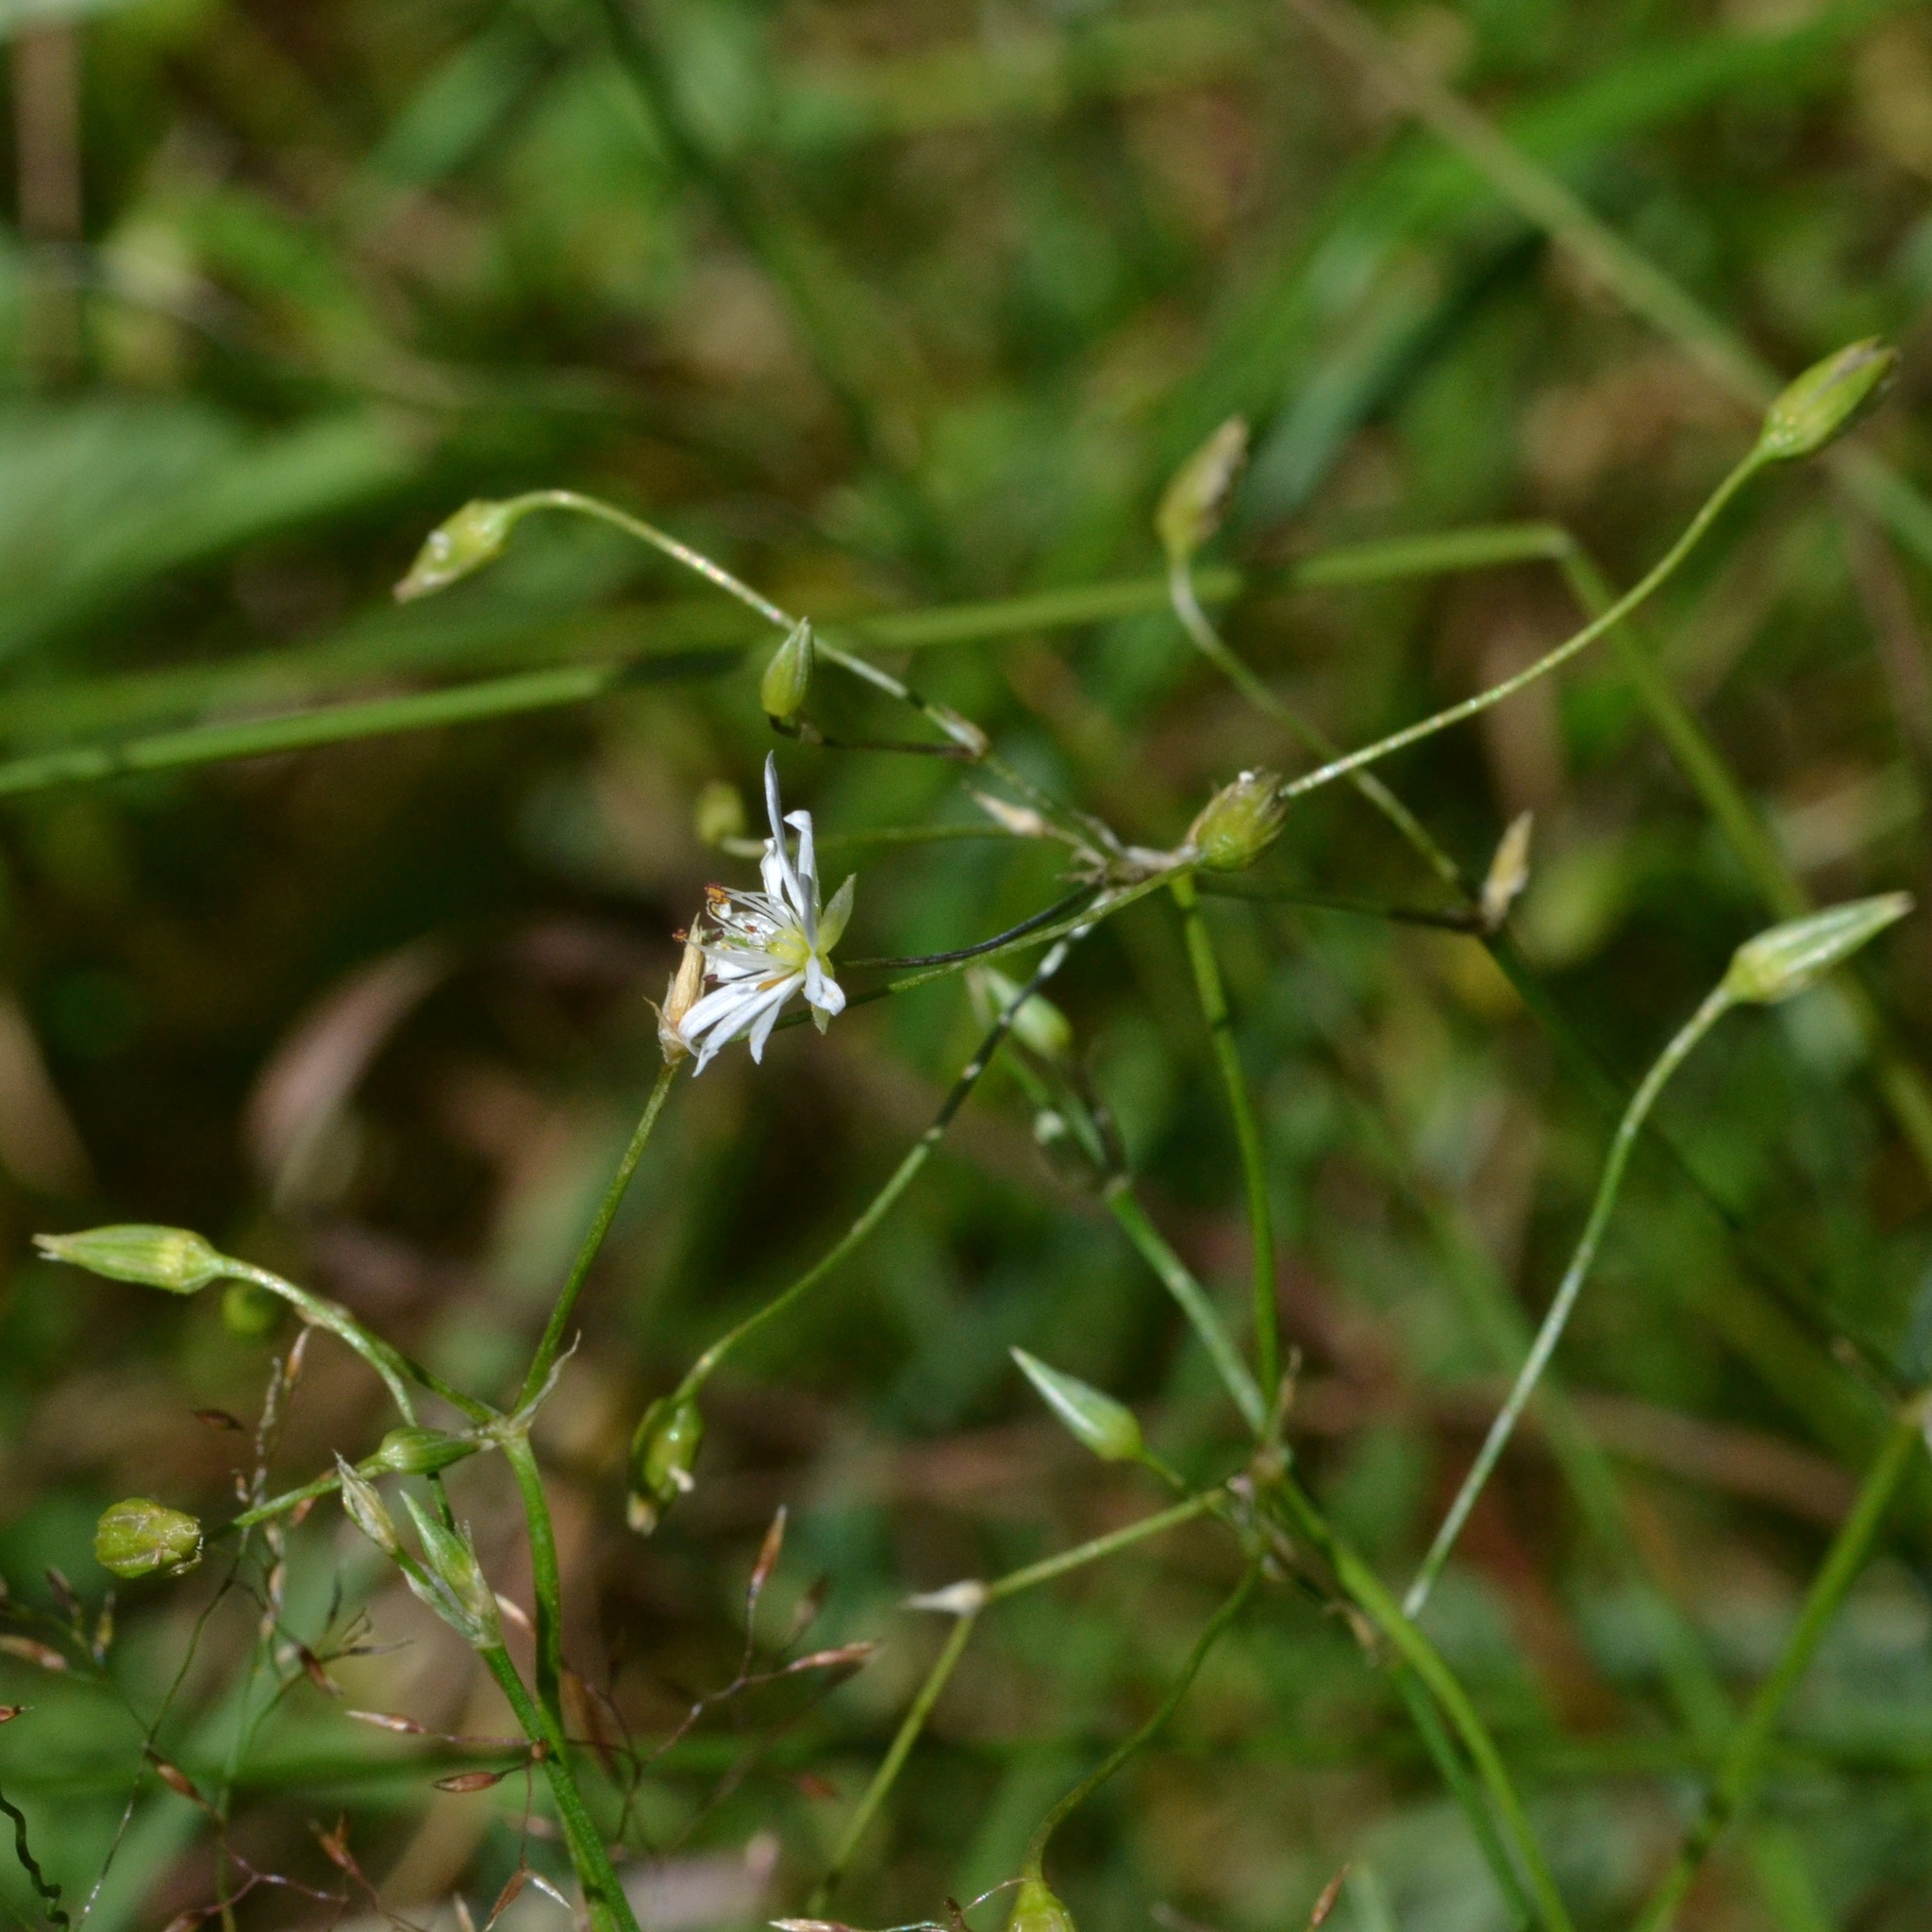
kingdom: Plantae
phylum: Tracheophyta
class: Magnoliopsida
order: Caryophyllales
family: Caryophyllaceae
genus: Stellaria
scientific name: Stellaria graminea
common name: Grass-like starwort
